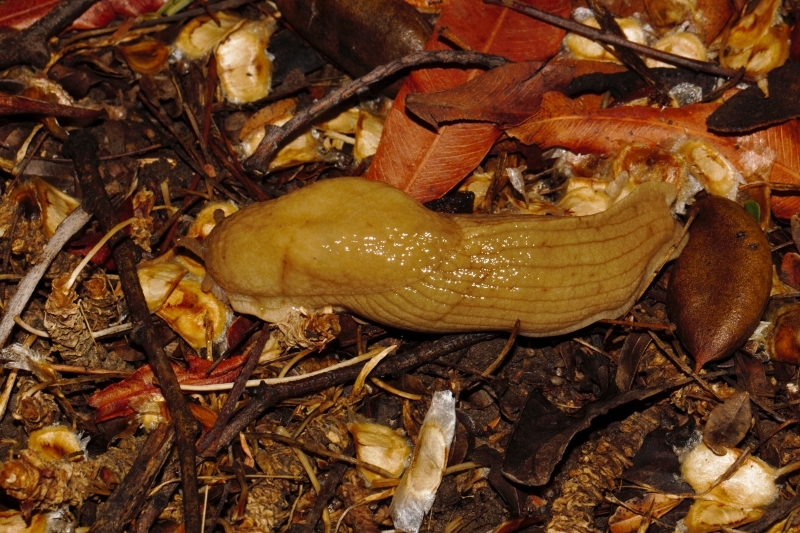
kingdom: Animalia
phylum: Mollusca
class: Gastropoda
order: Stylommatophora
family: Urocyclidae
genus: Polytoxon
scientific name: Polytoxon robustum
